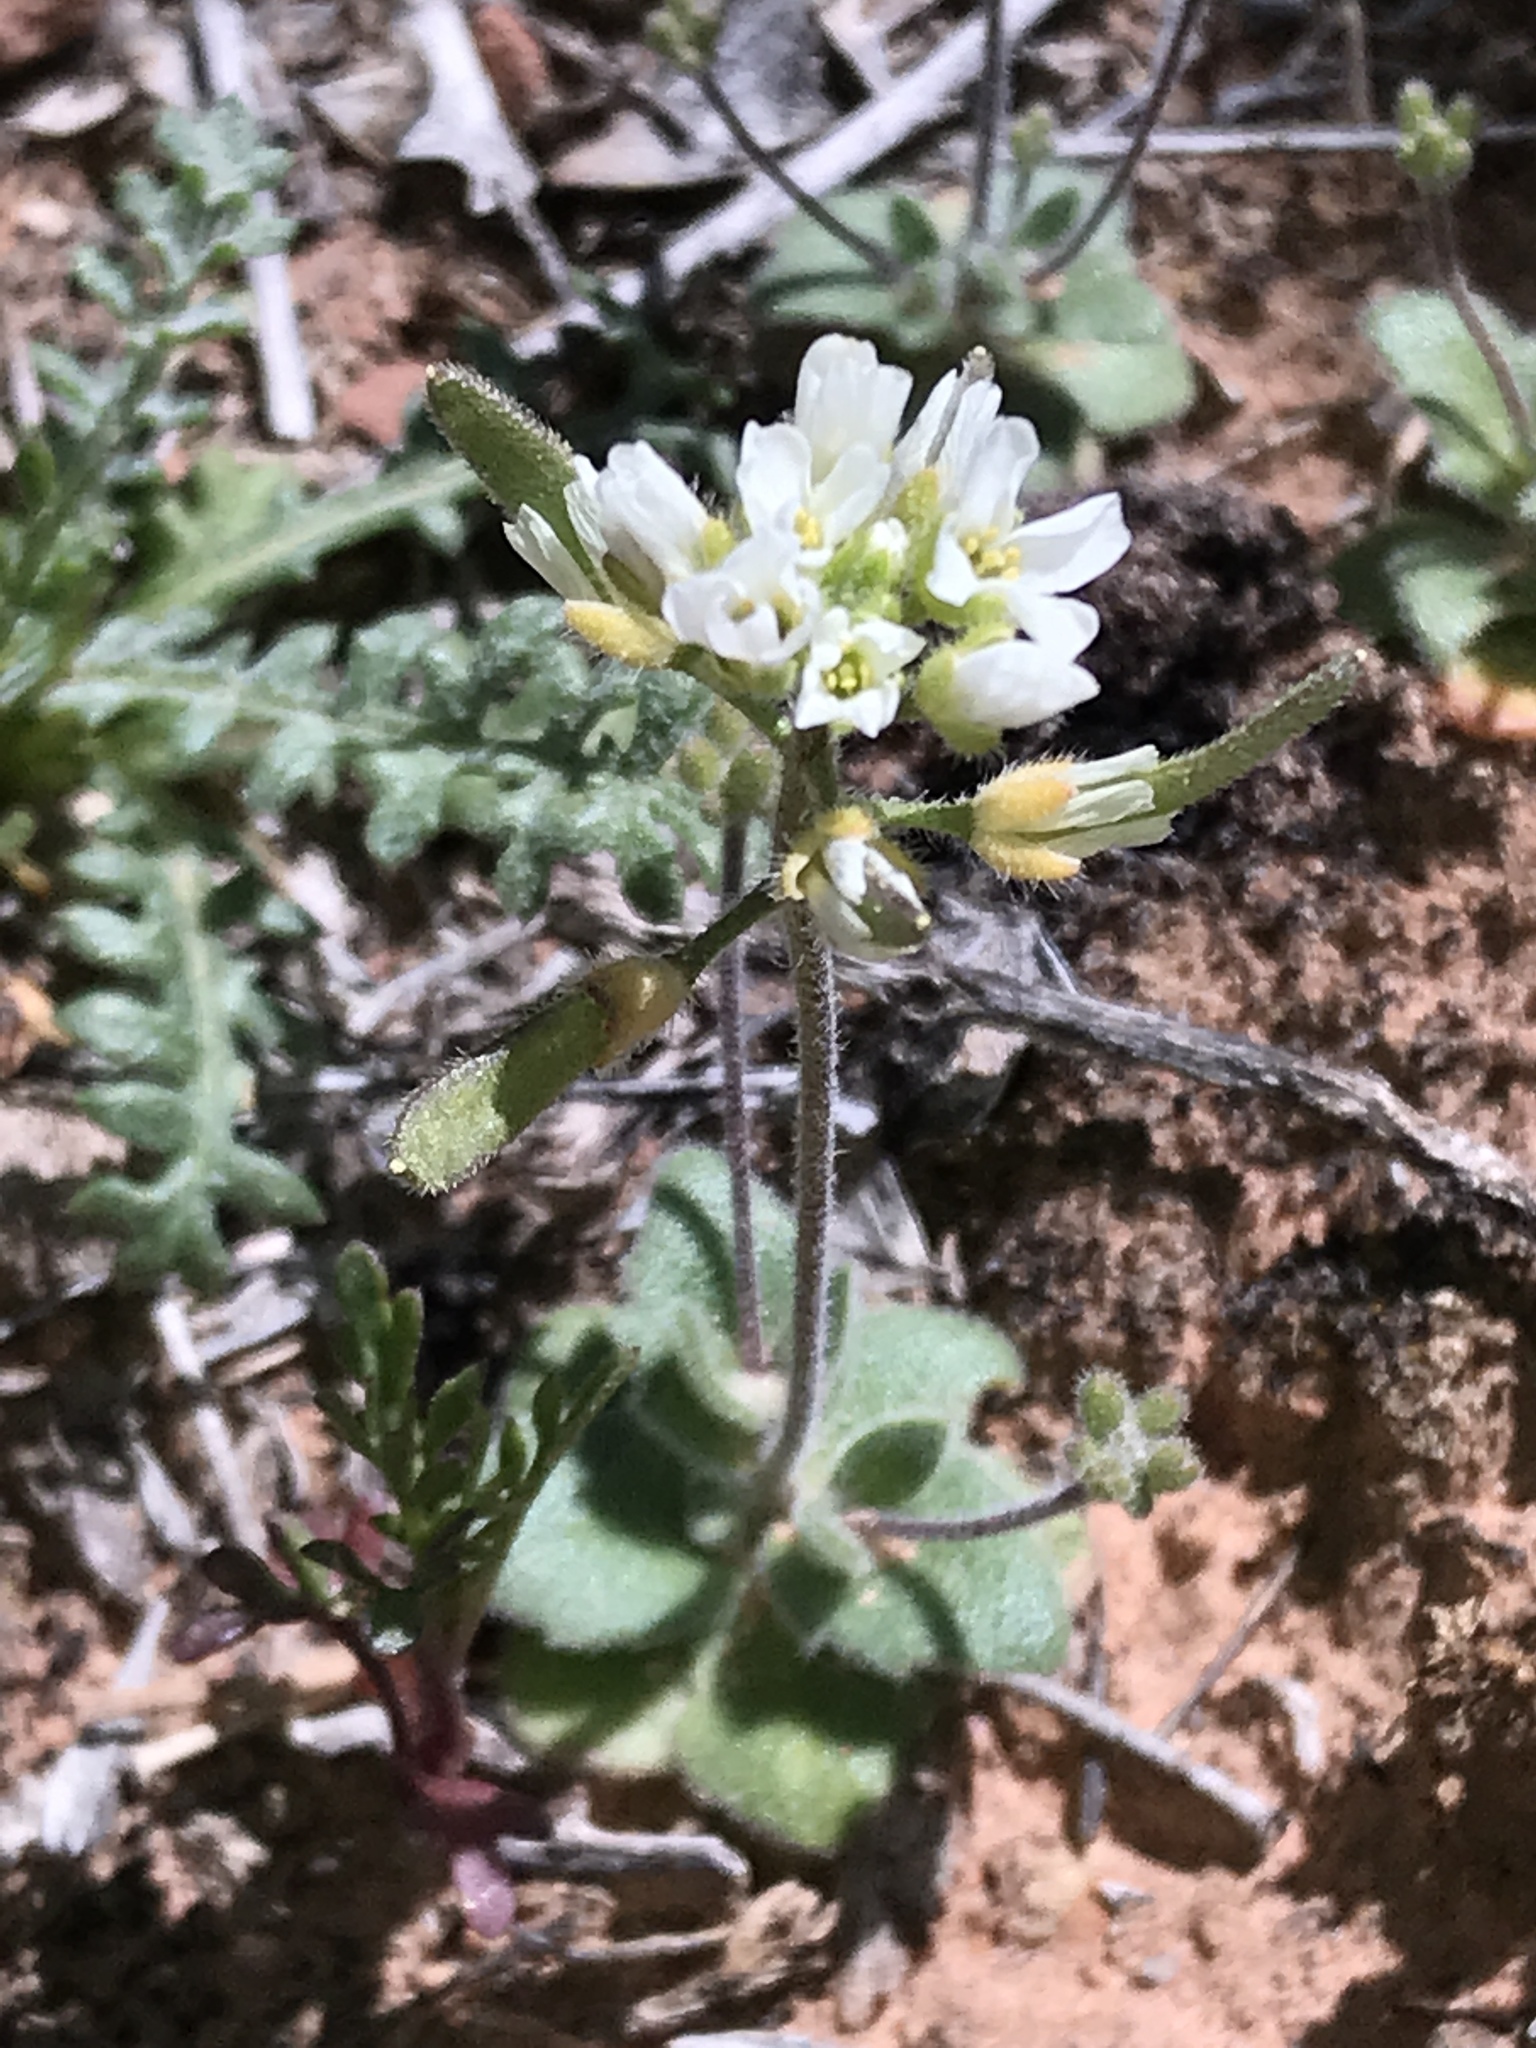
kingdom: Plantae
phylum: Tracheophyta
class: Magnoliopsida
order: Brassicales
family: Brassicaceae
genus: Tomostima
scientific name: Tomostima cuneifolia
